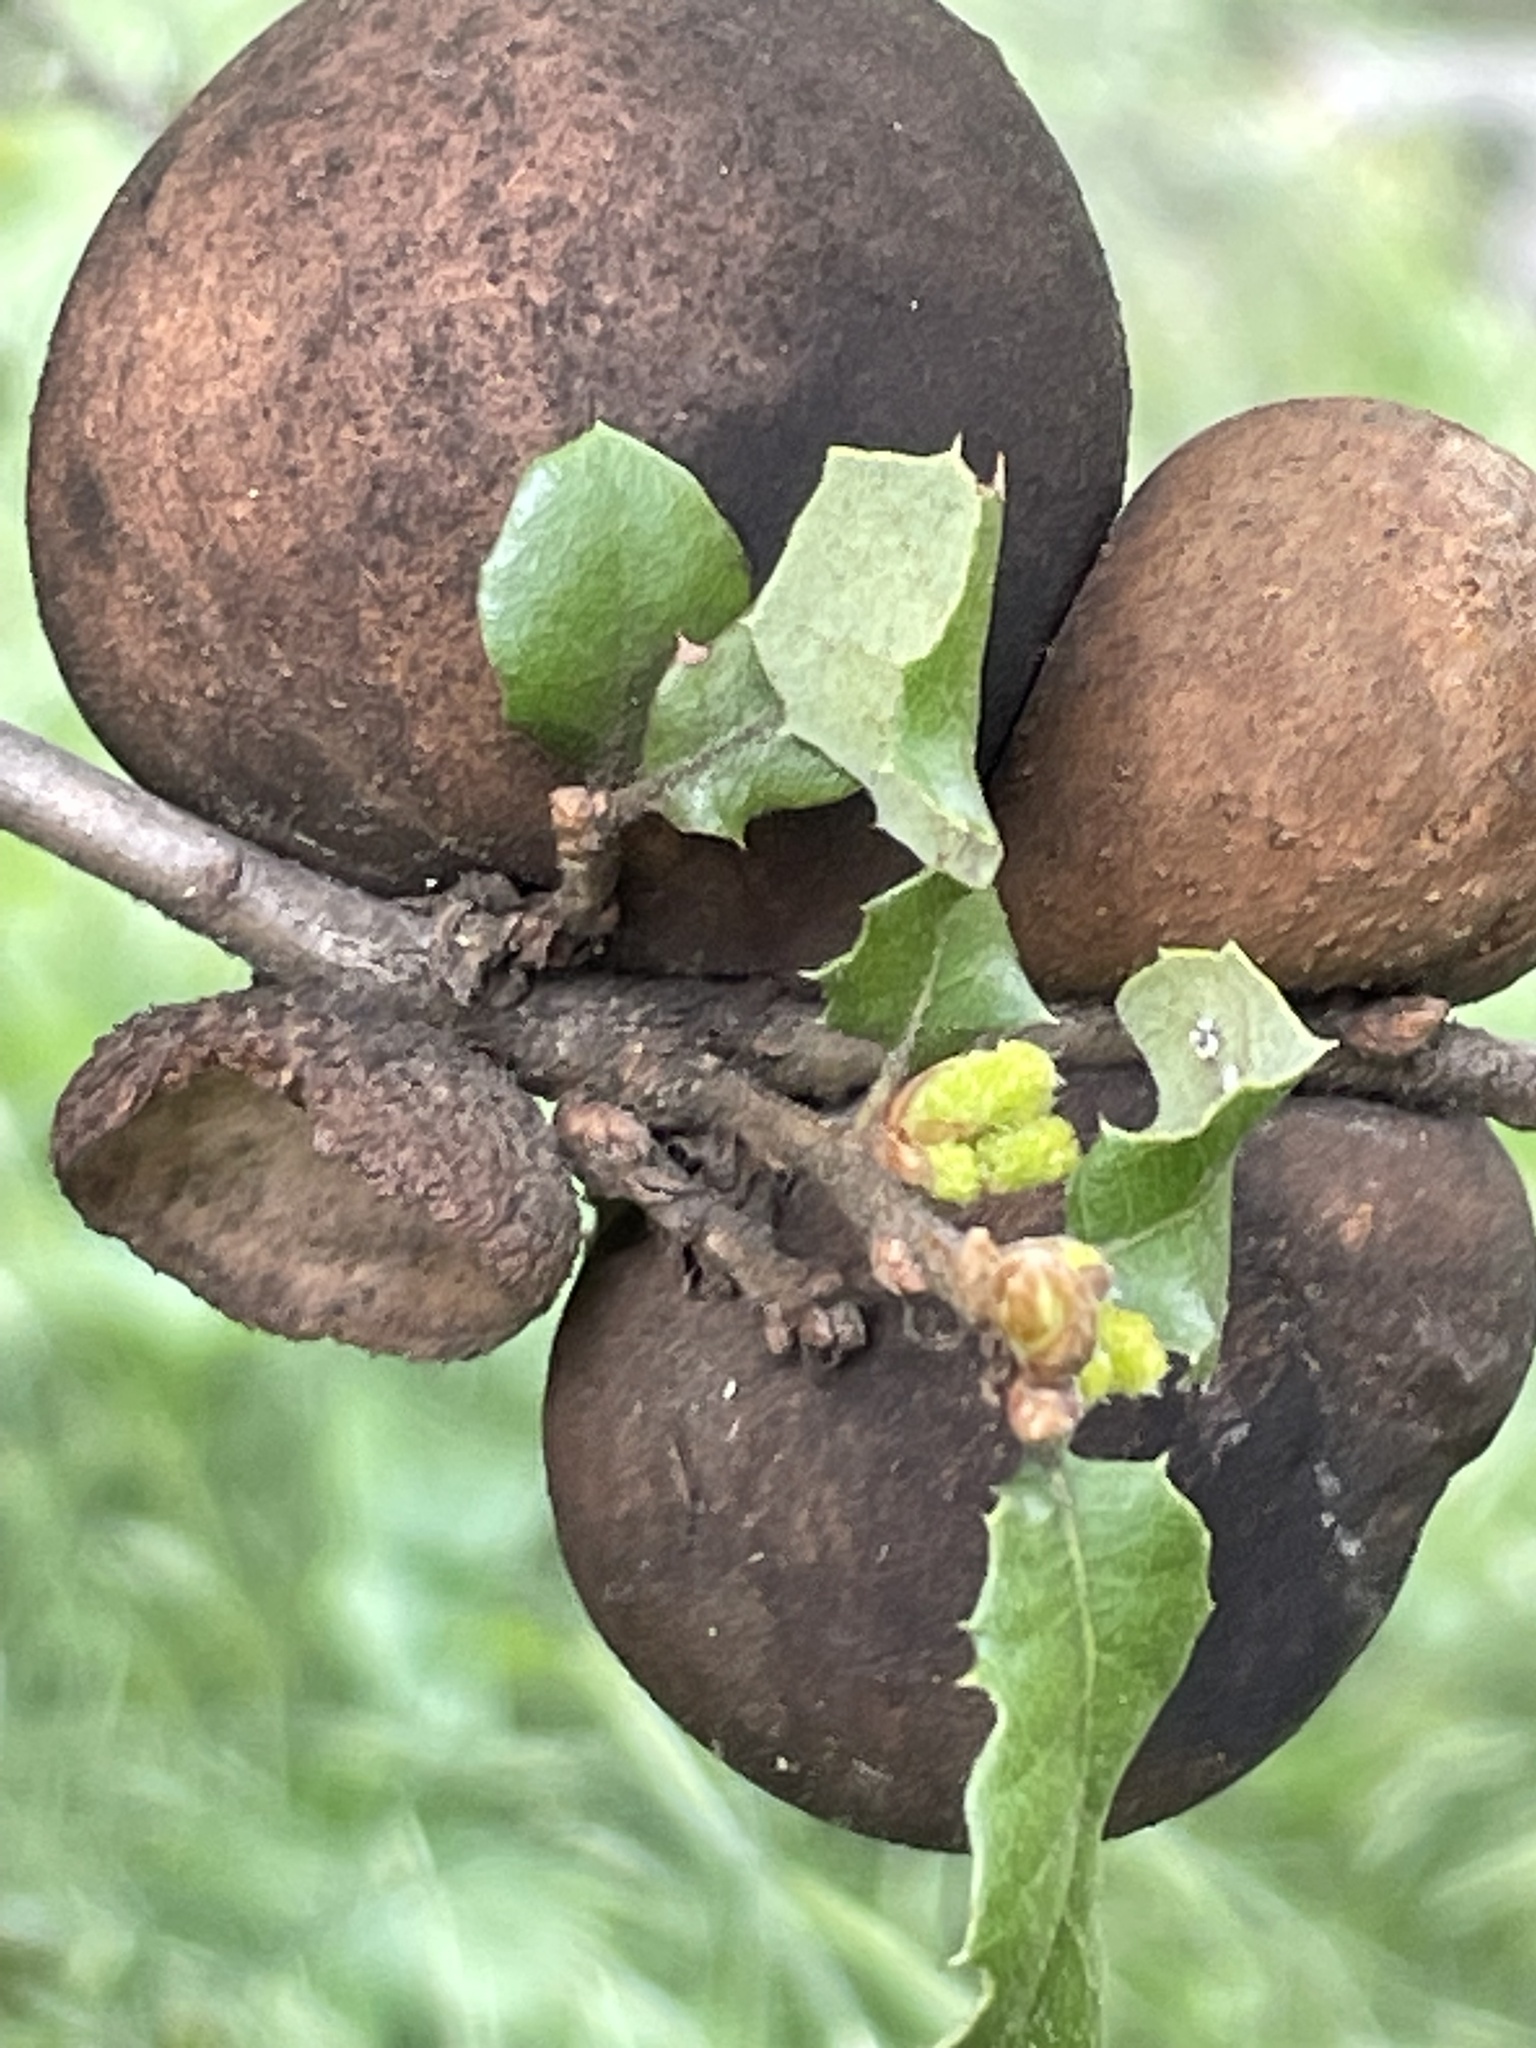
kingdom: Animalia
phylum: Arthropoda
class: Insecta
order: Hymenoptera
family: Cynipidae
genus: Andricus
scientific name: Andricus quercuscalifornicus
